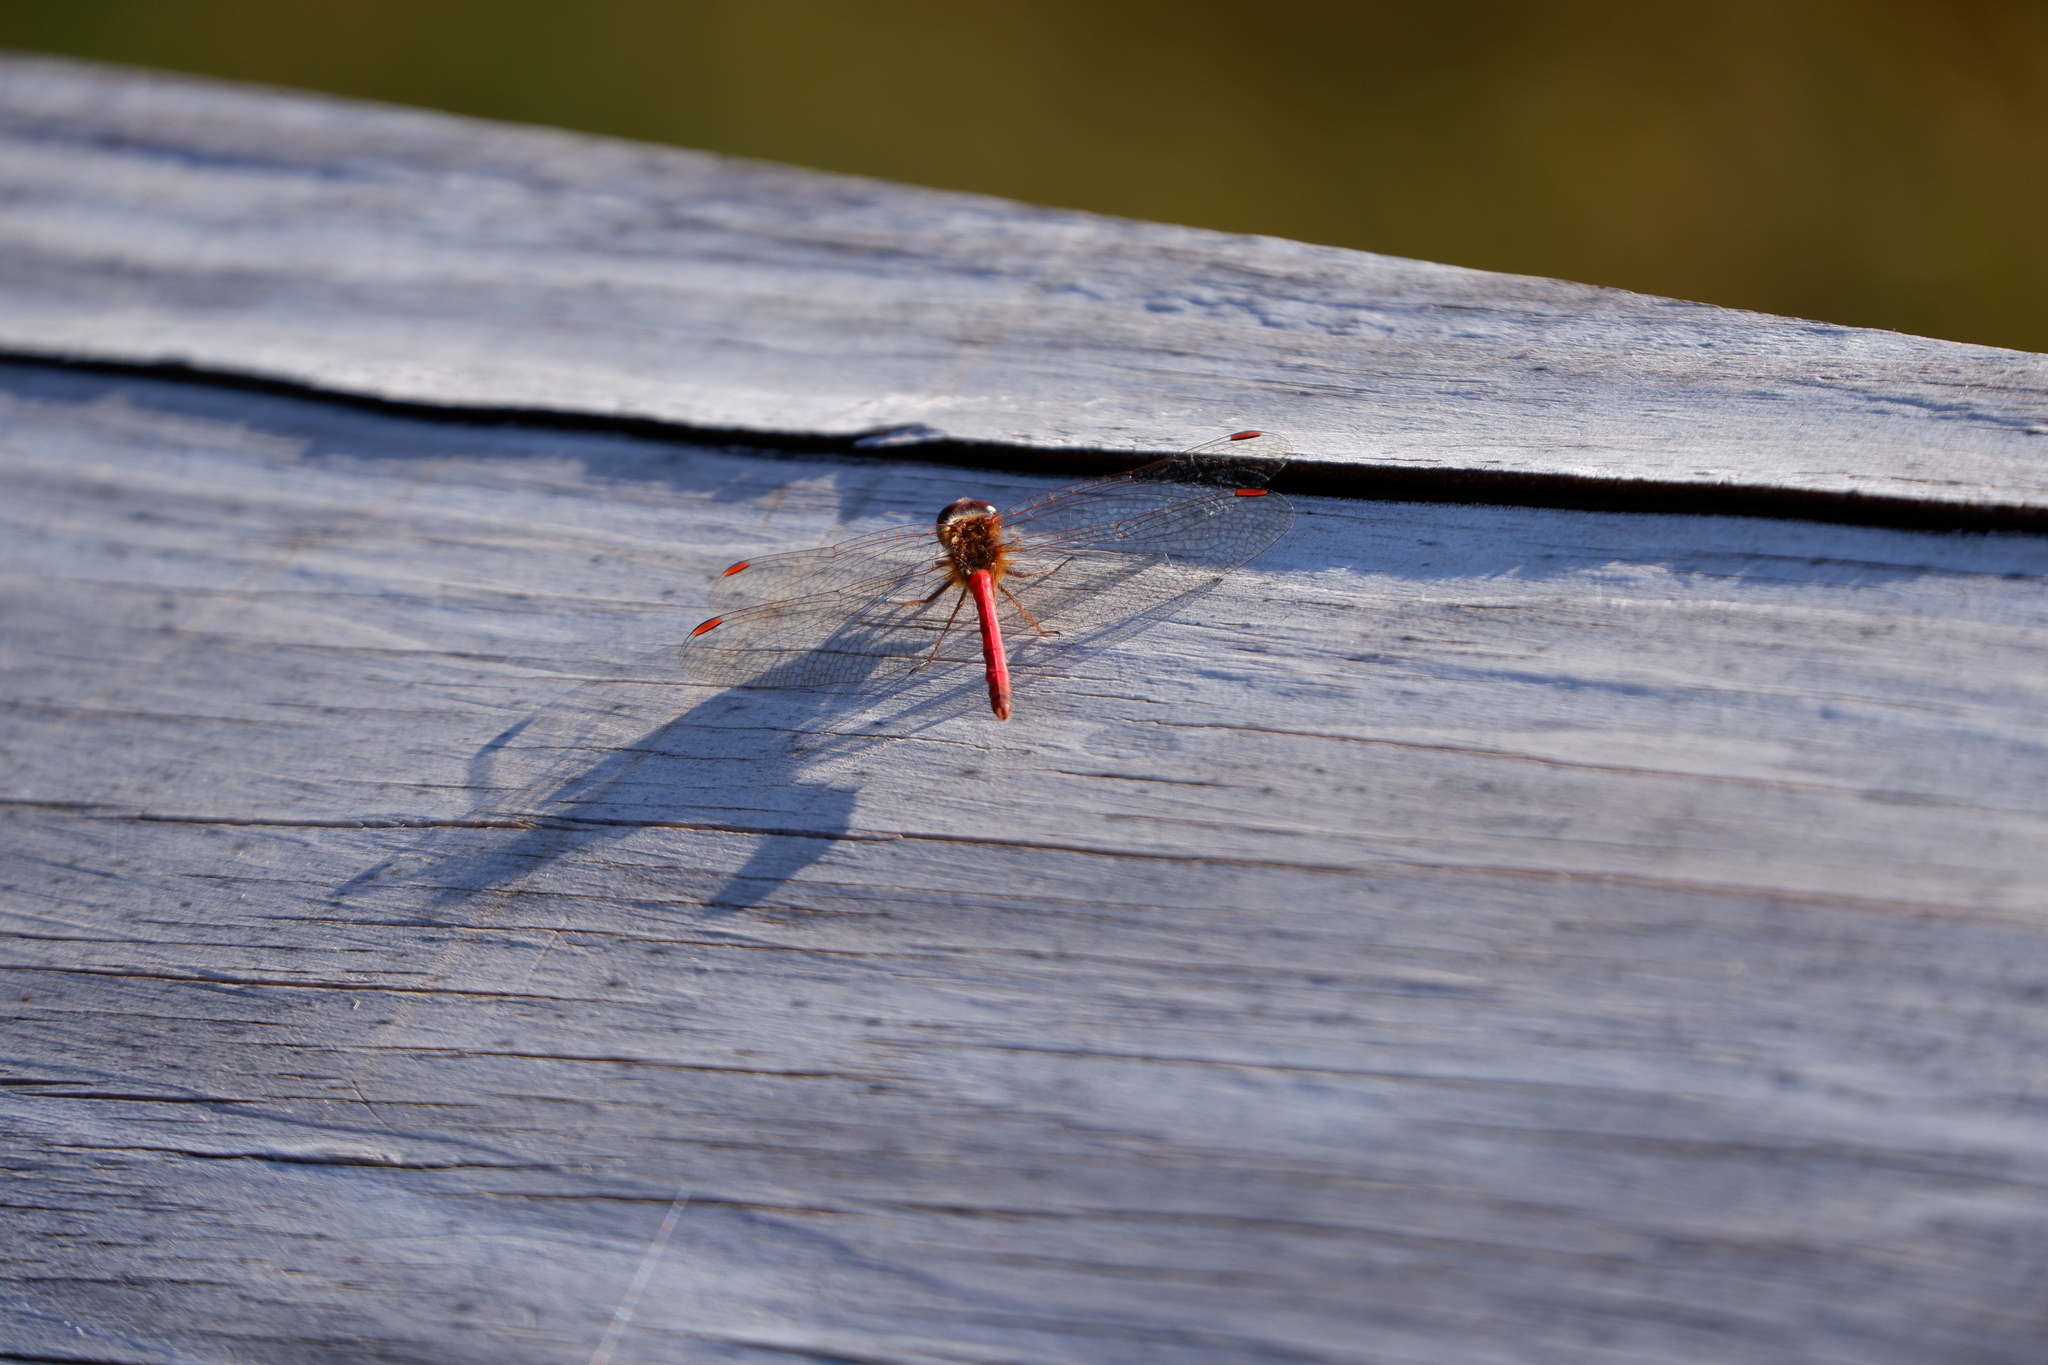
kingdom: Animalia
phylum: Arthropoda
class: Insecta
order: Odonata
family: Libellulidae
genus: Sympetrum
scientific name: Sympetrum vicinum
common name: Autumn meadowhawk
